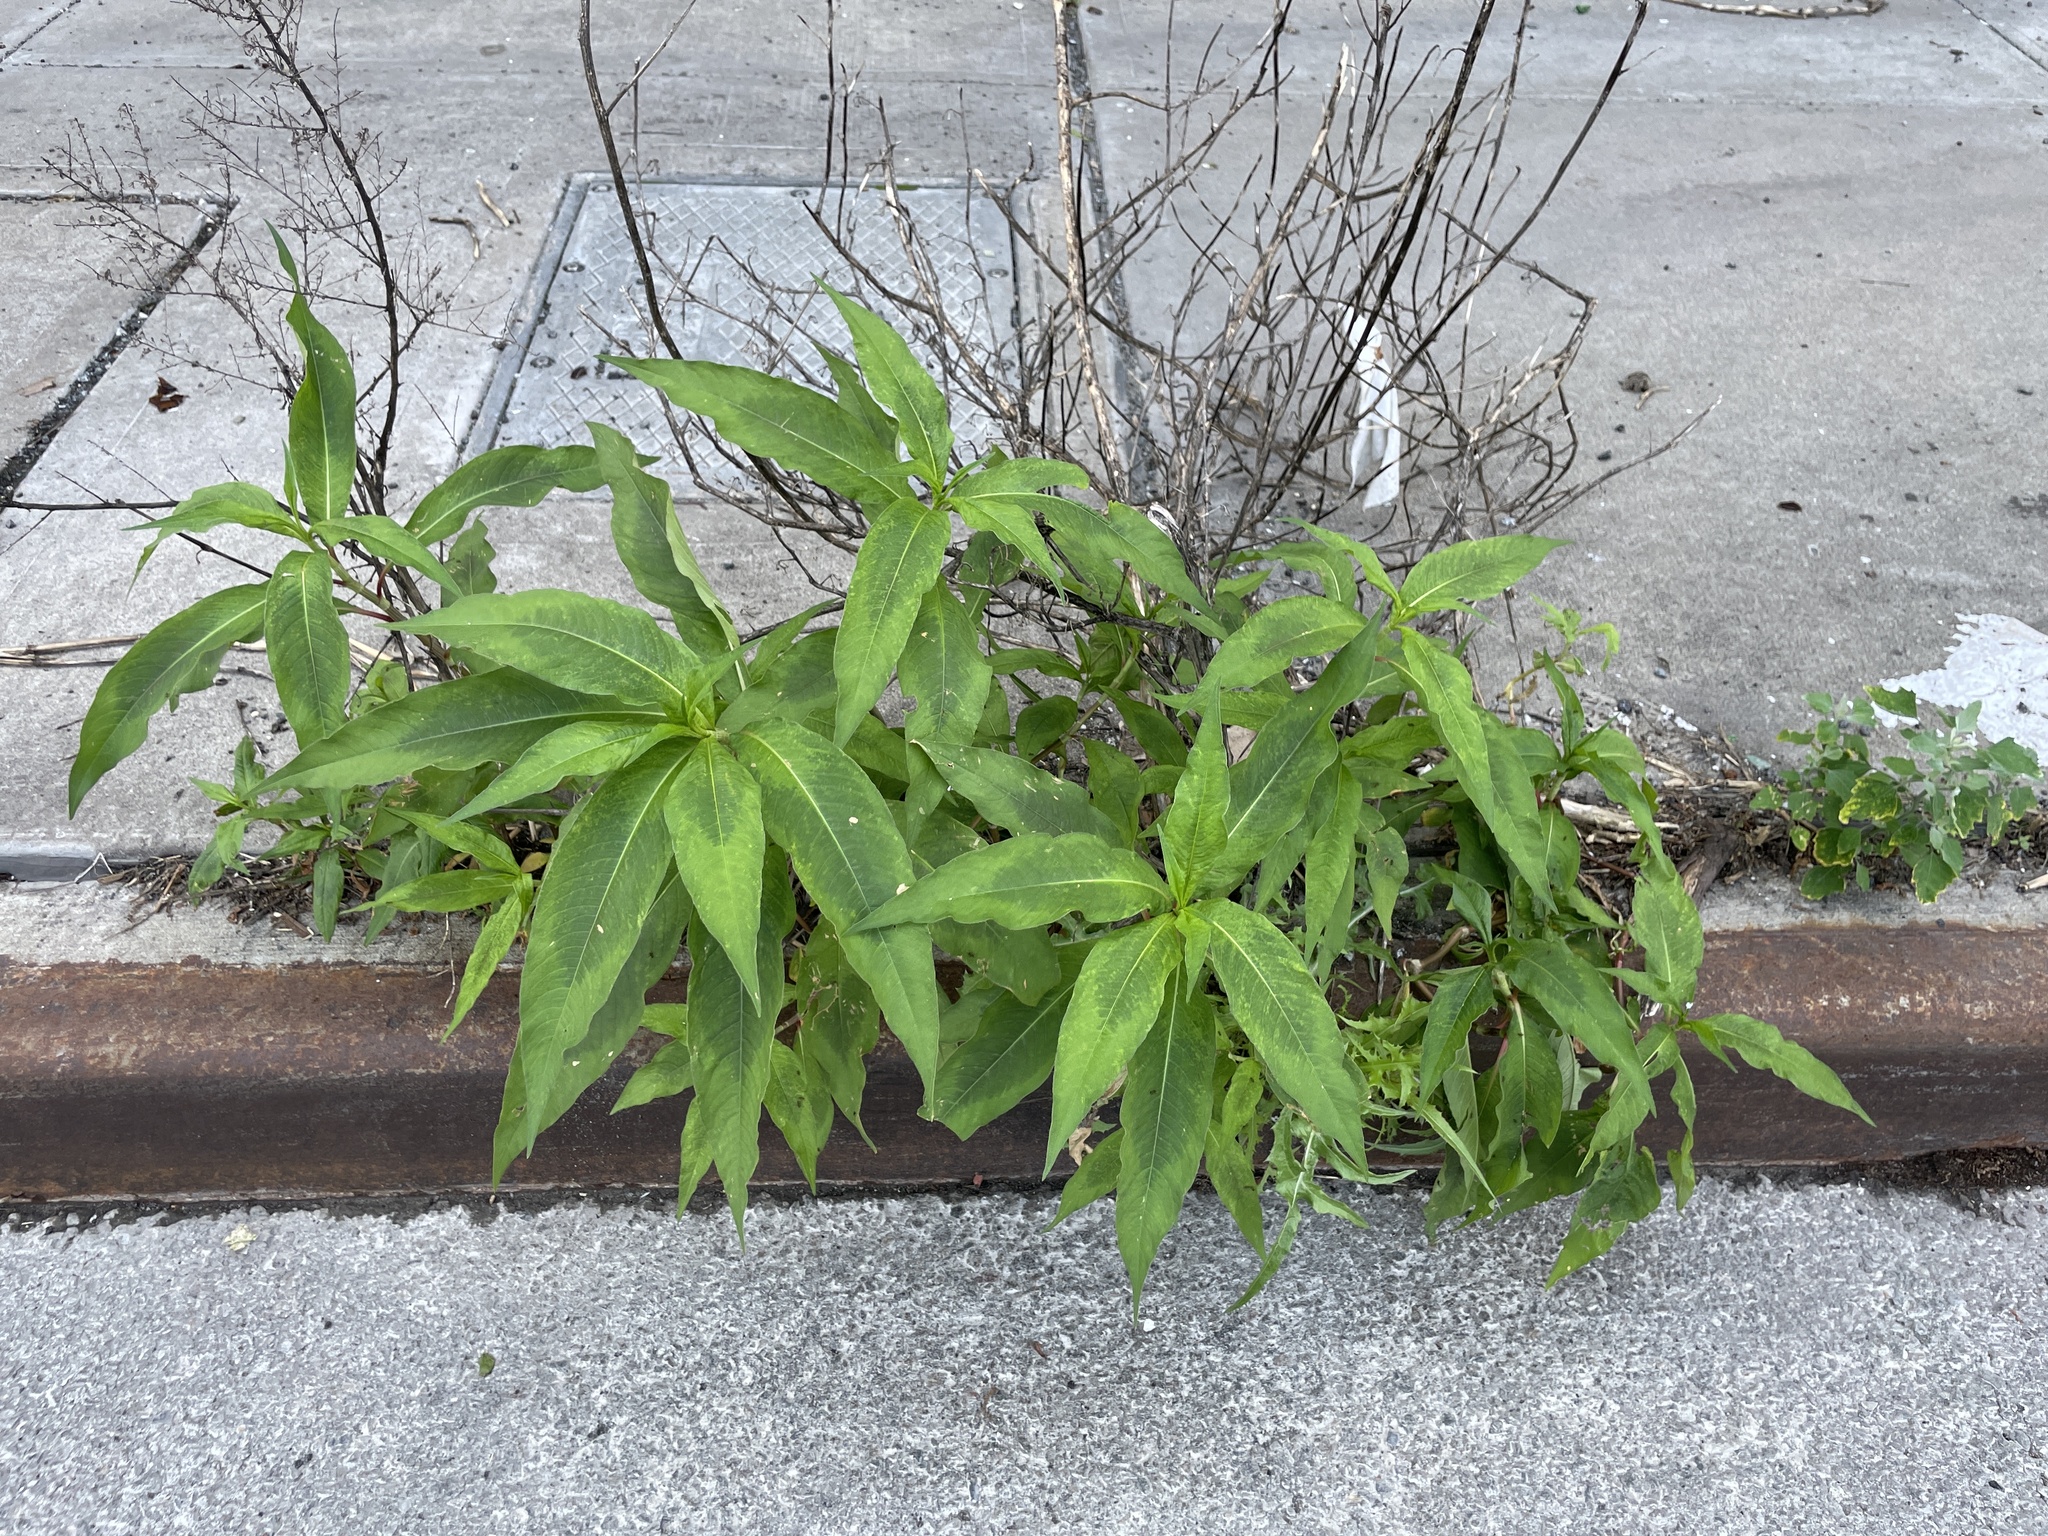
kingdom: Plantae
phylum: Tracheophyta
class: Magnoliopsida
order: Caryophyllales
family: Polygonaceae
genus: Persicaria
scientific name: Persicaria extremiorientalis
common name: Far-eastern smartweed
